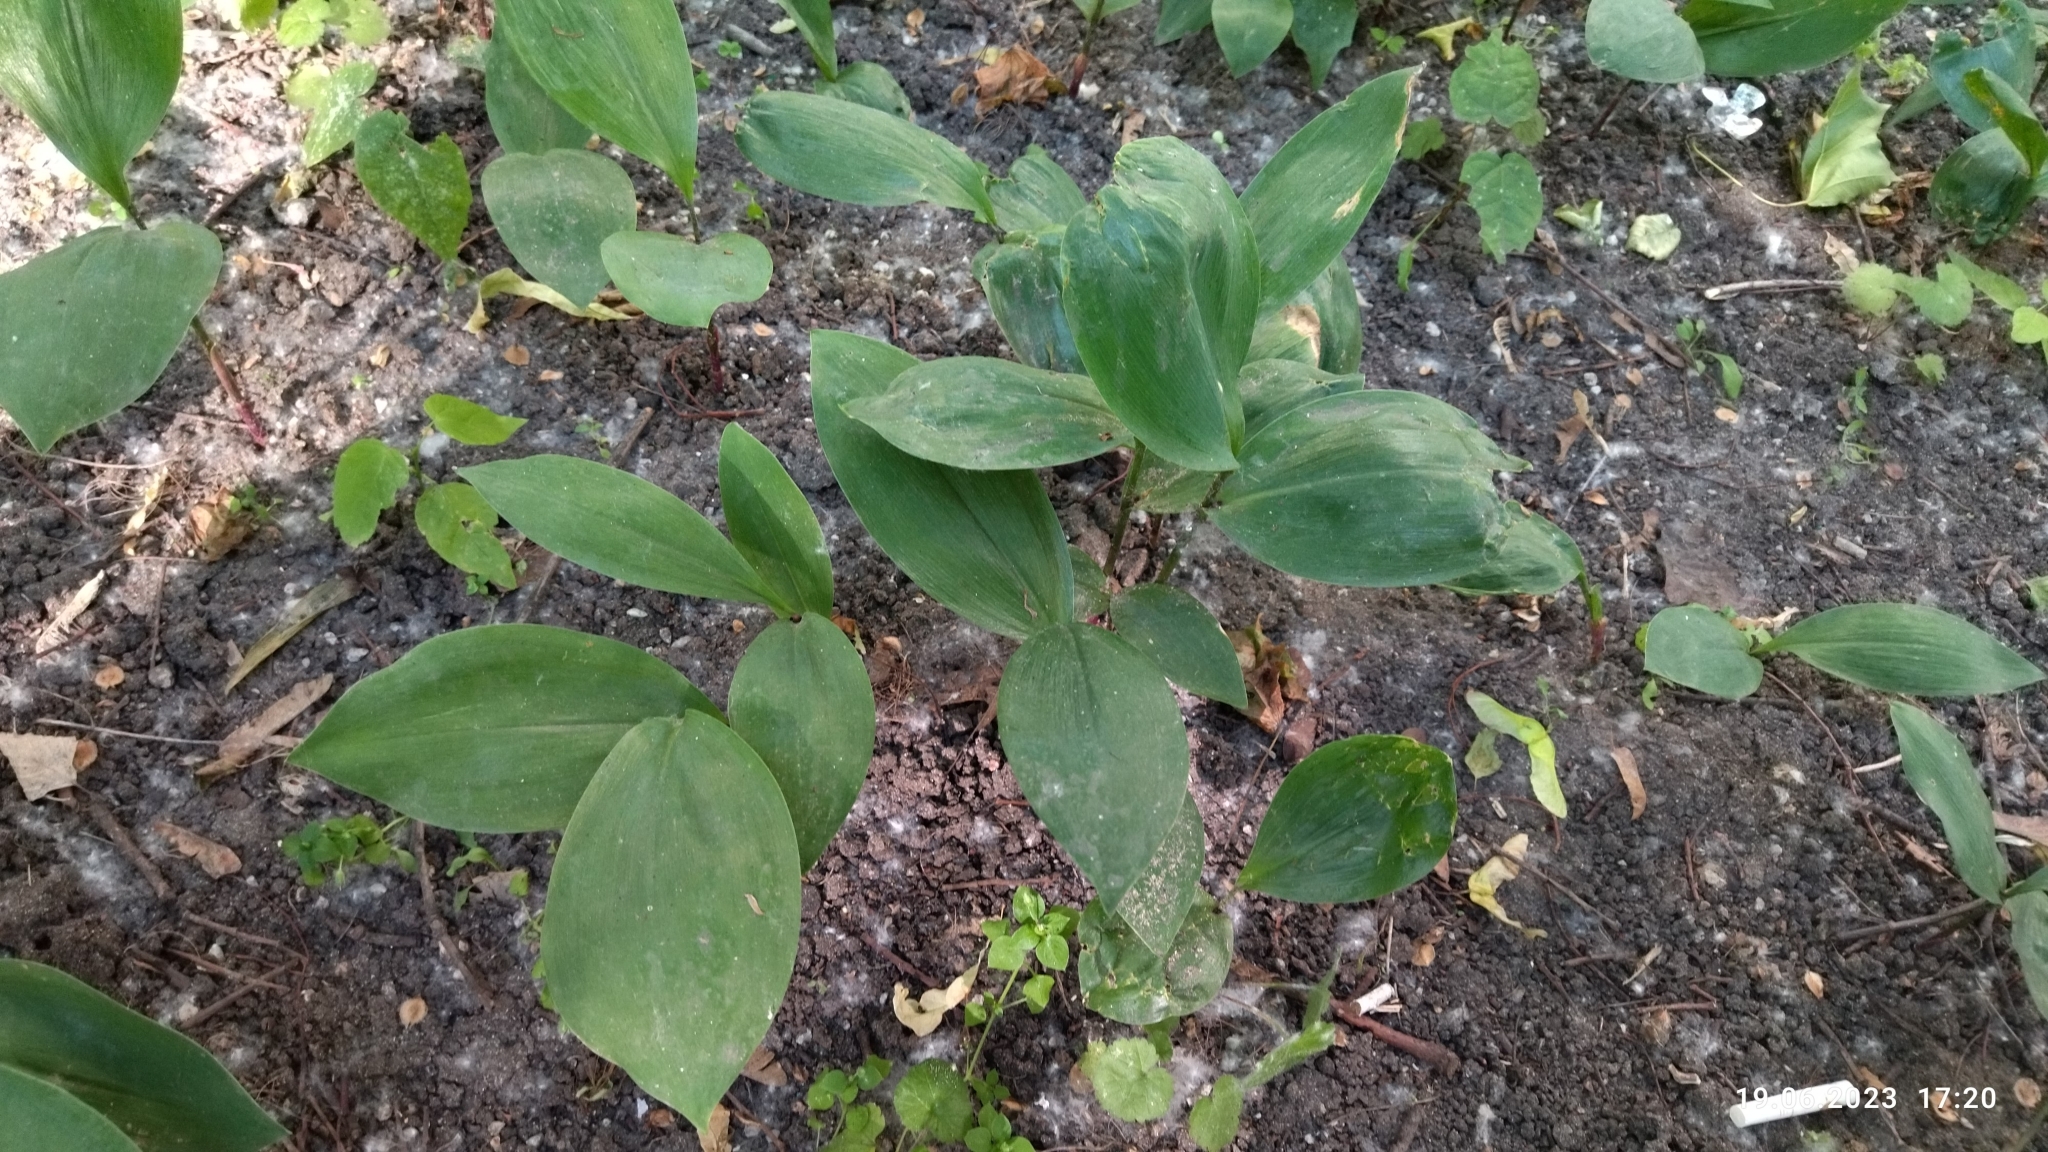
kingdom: Plantae
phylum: Tracheophyta
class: Liliopsida
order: Asparagales
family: Asparagaceae
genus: Convallaria
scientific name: Convallaria majalis
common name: Lily-of-the-valley
